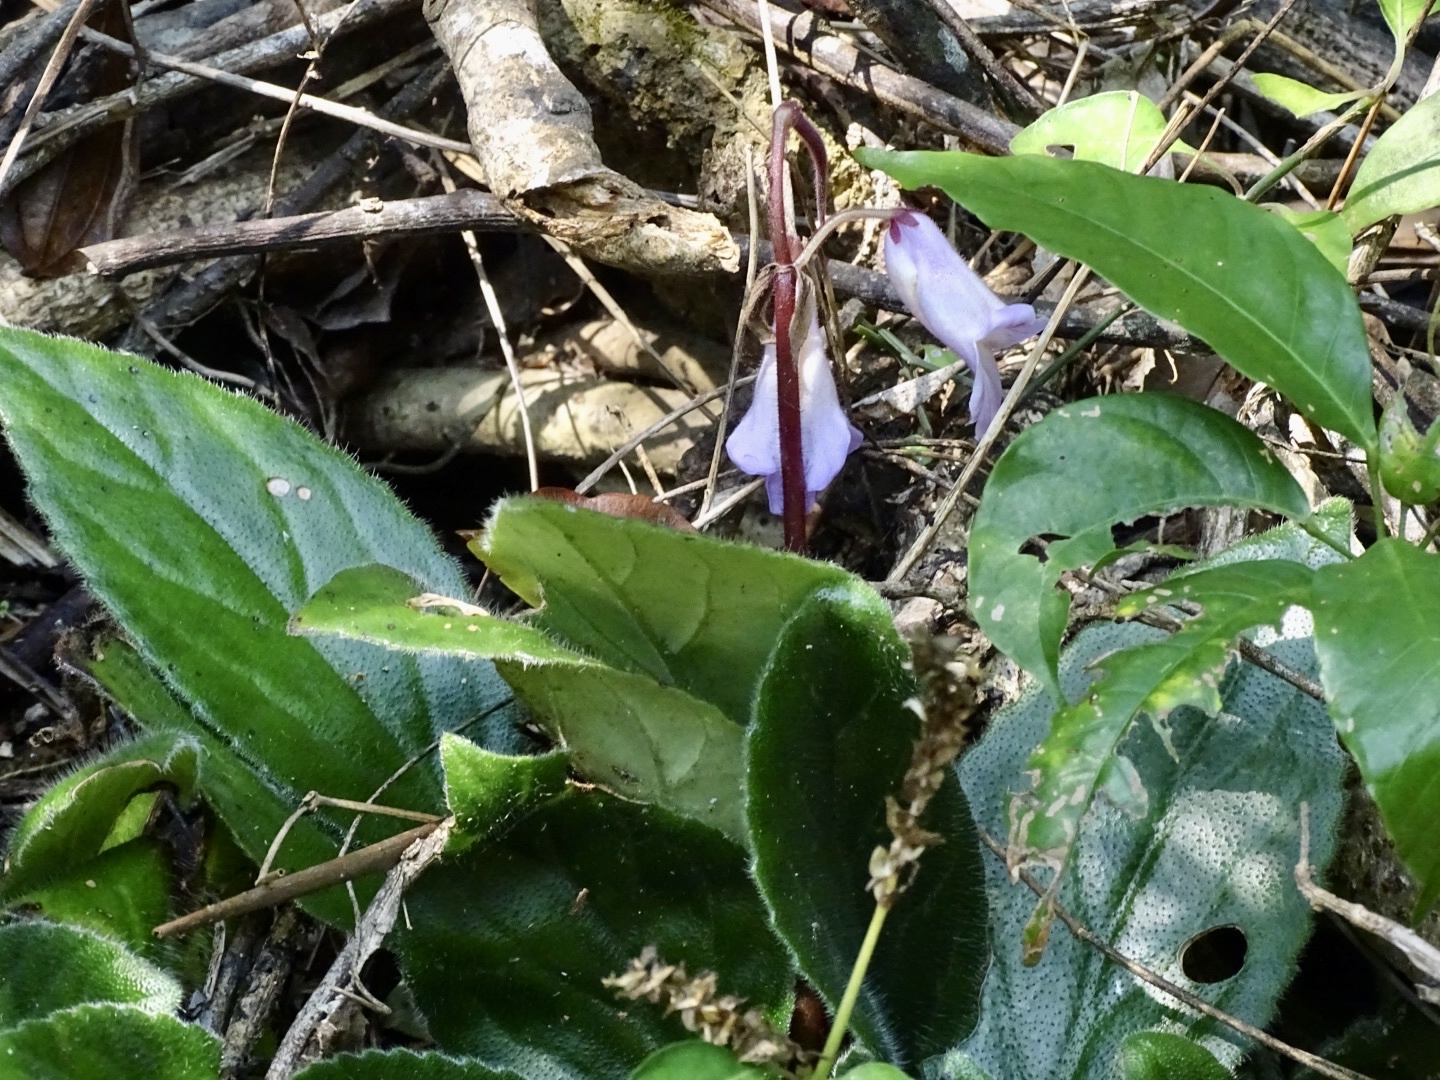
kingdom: Plantae
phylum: Tracheophyta
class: Magnoliopsida
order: Lamiales
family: Gesneriaceae
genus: Primulina
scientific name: Primulina dryas
